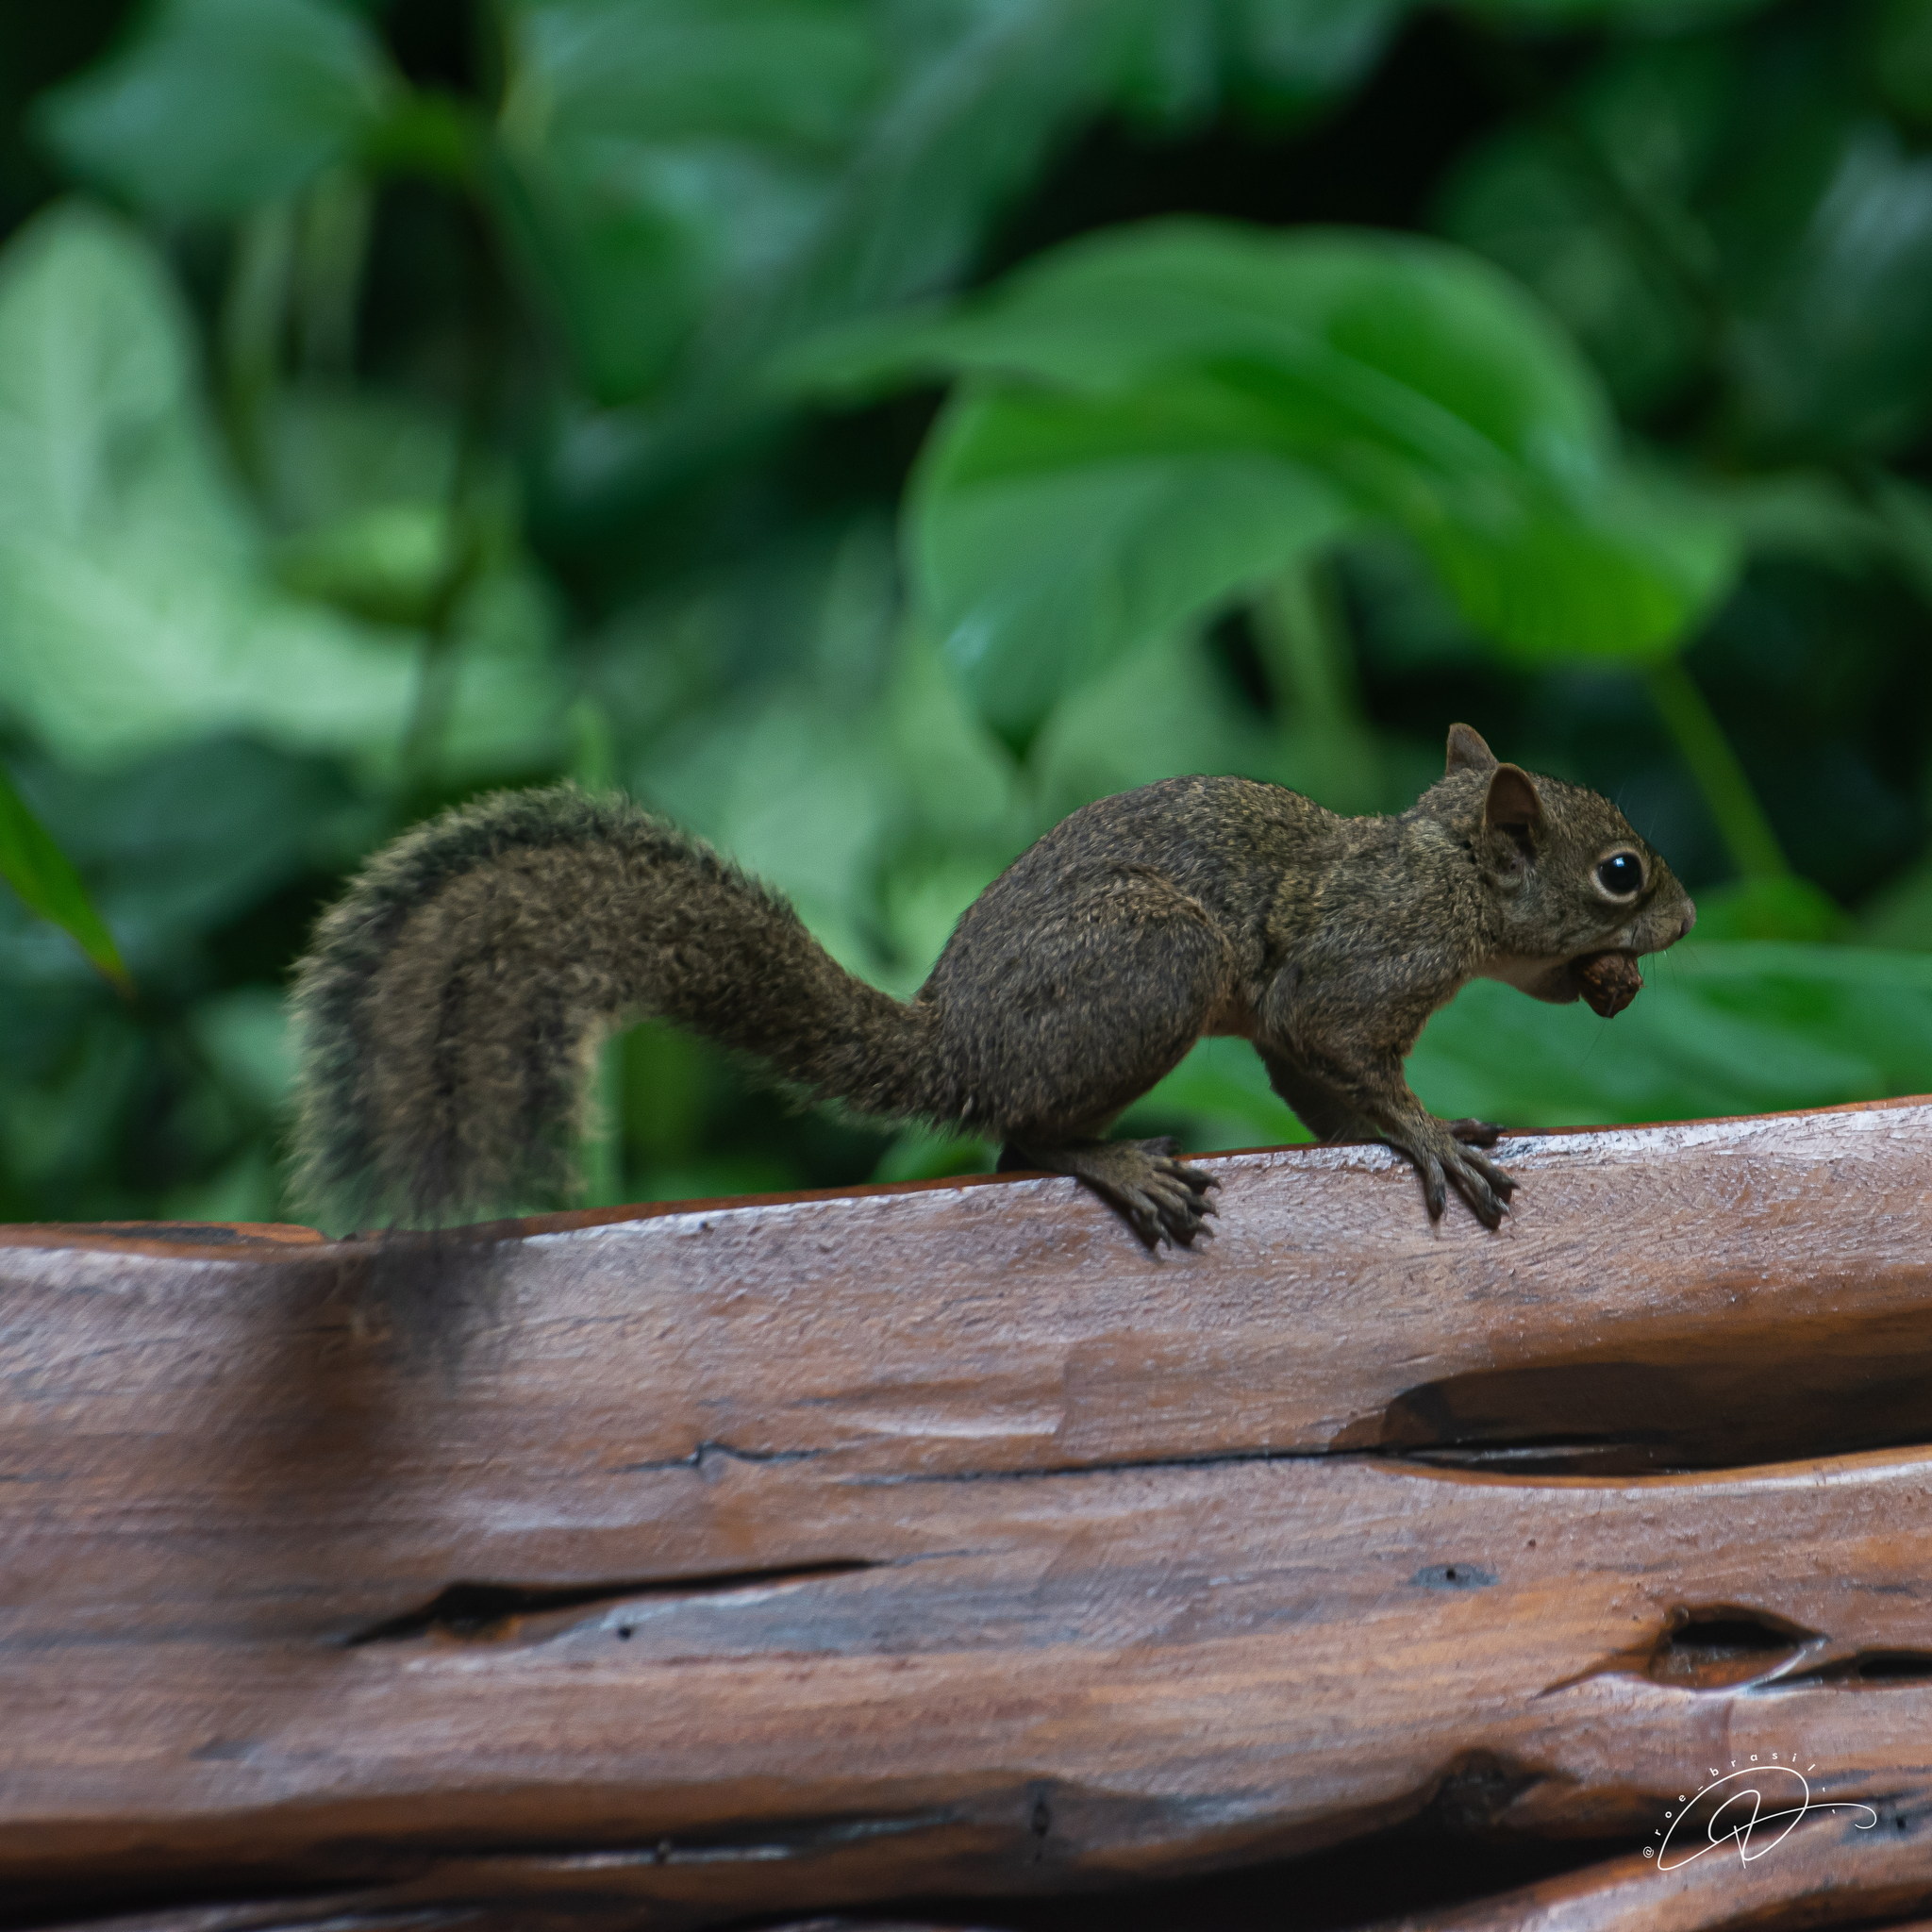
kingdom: Animalia
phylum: Chordata
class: Mammalia
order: Rodentia
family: Sciuridae
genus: Sciurus
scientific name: Sciurus aestuans
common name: Guianan squirrel
